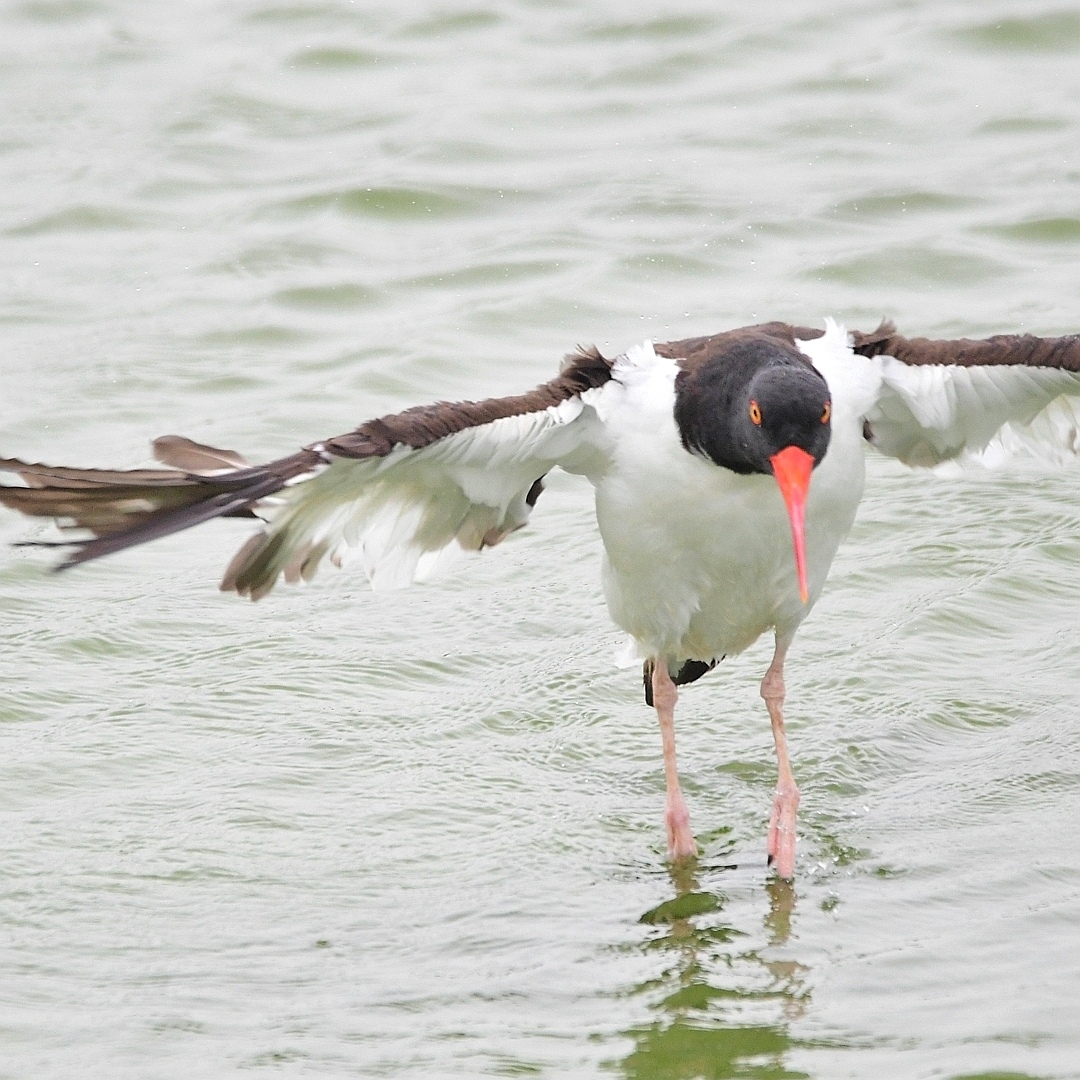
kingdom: Animalia
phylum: Chordata
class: Aves
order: Charadriiformes
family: Haematopodidae
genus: Haematopus
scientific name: Haematopus palliatus
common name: American oystercatcher
